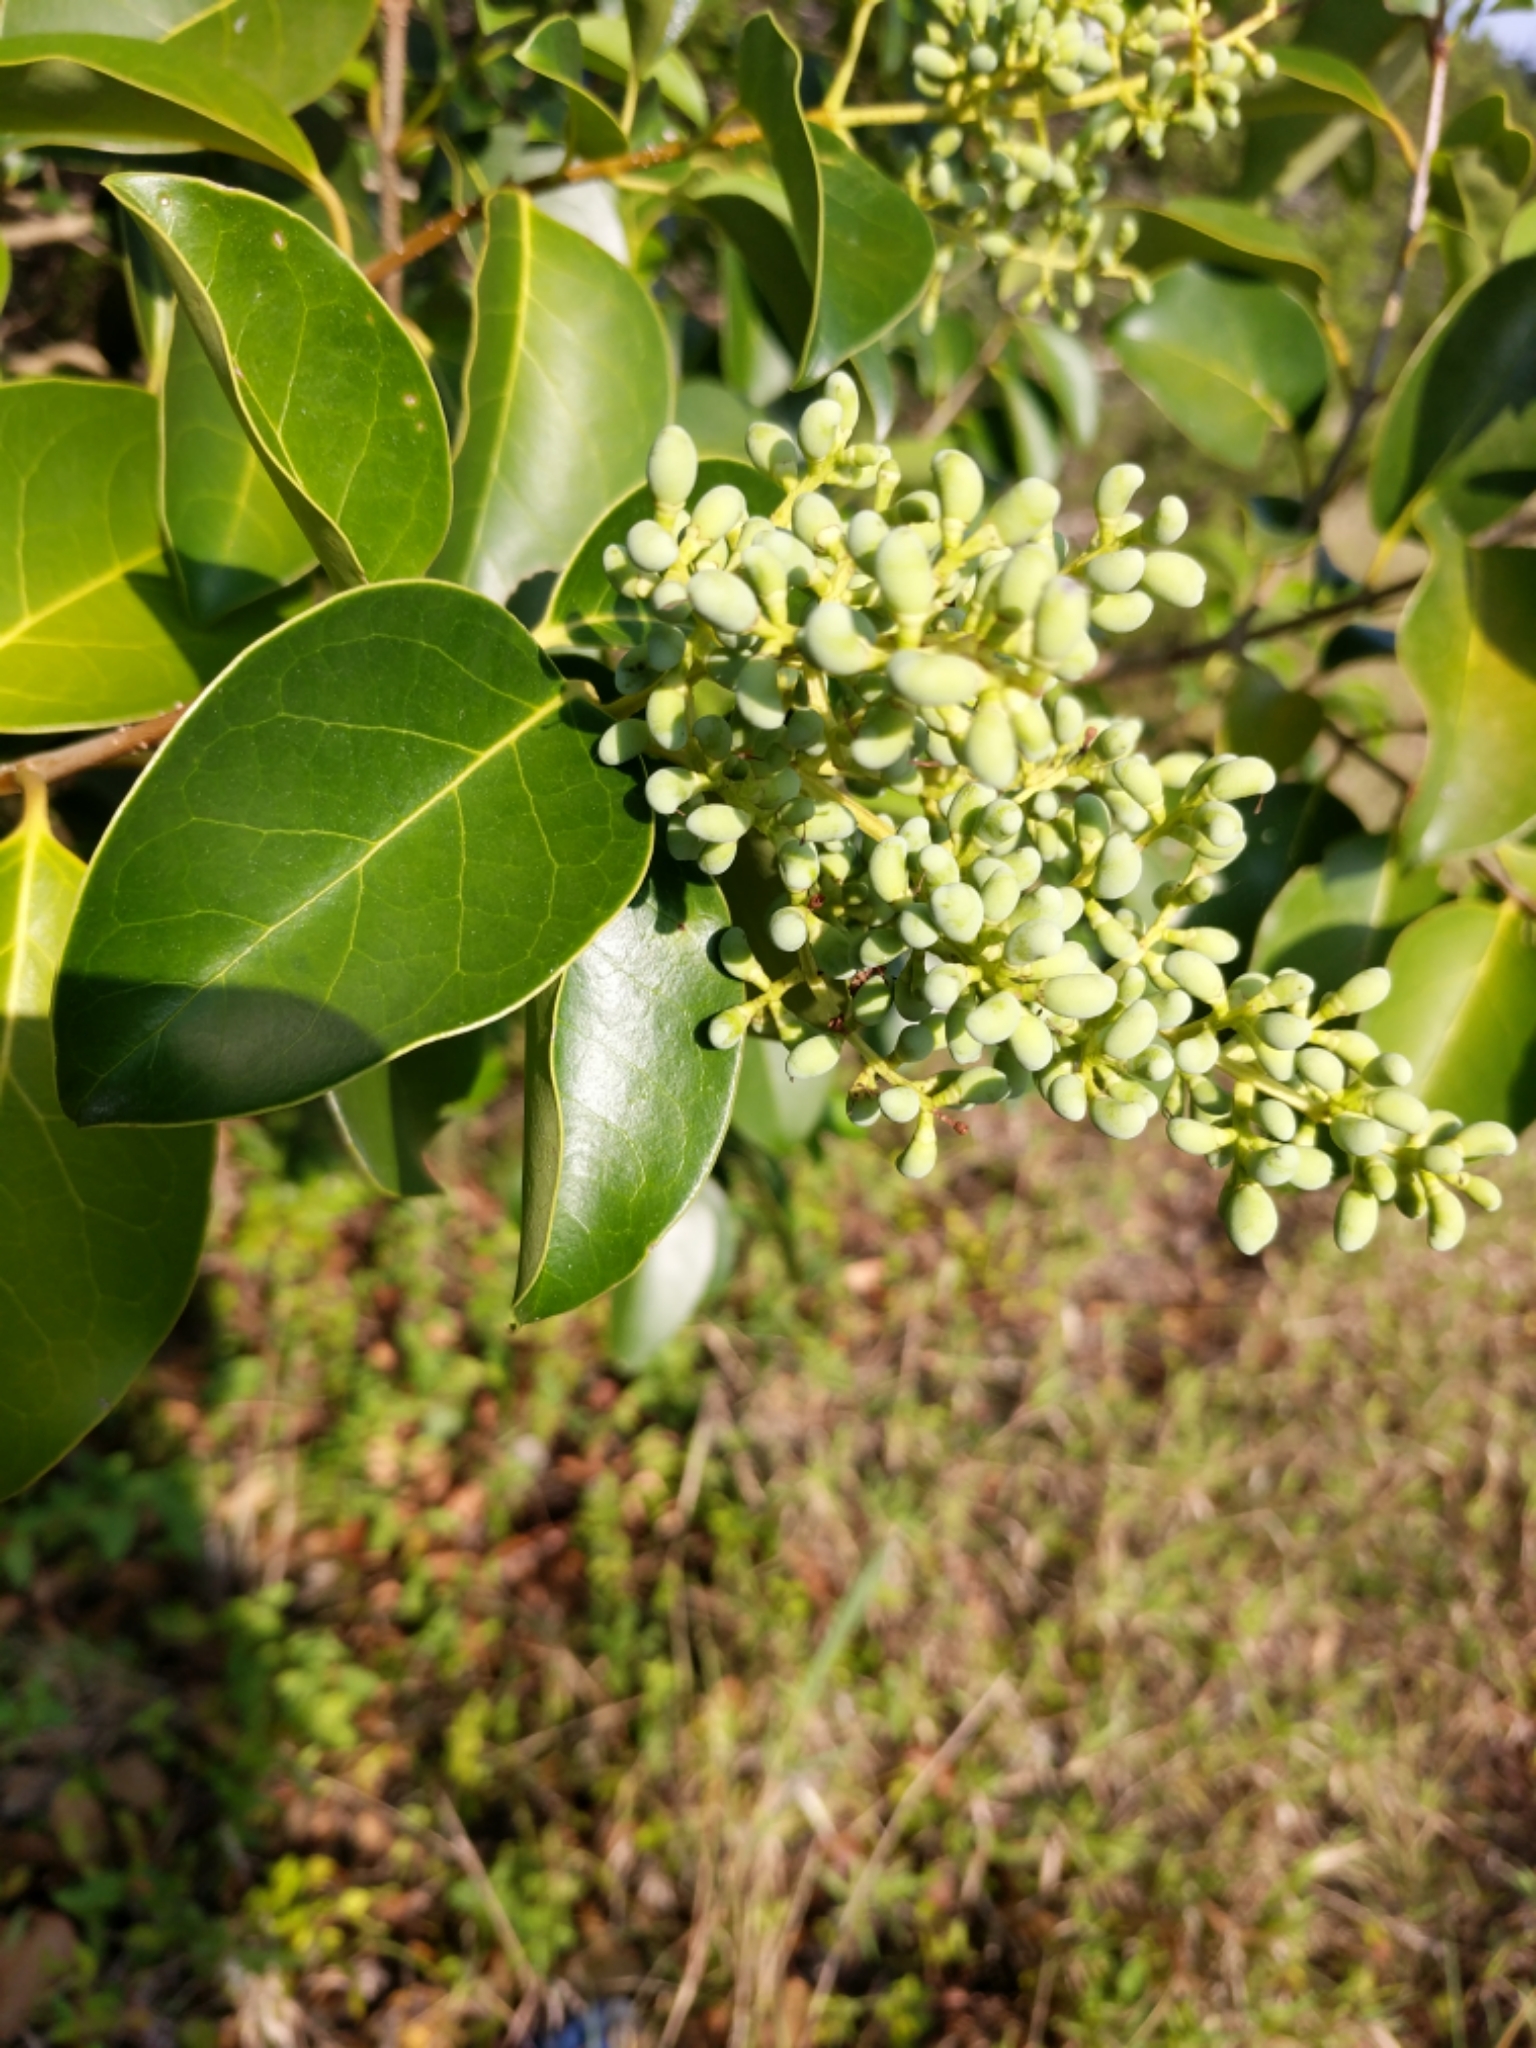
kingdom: Plantae
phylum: Tracheophyta
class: Magnoliopsida
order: Lamiales
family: Oleaceae
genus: Ligustrum
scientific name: Ligustrum lucidum
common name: Glossy privet
